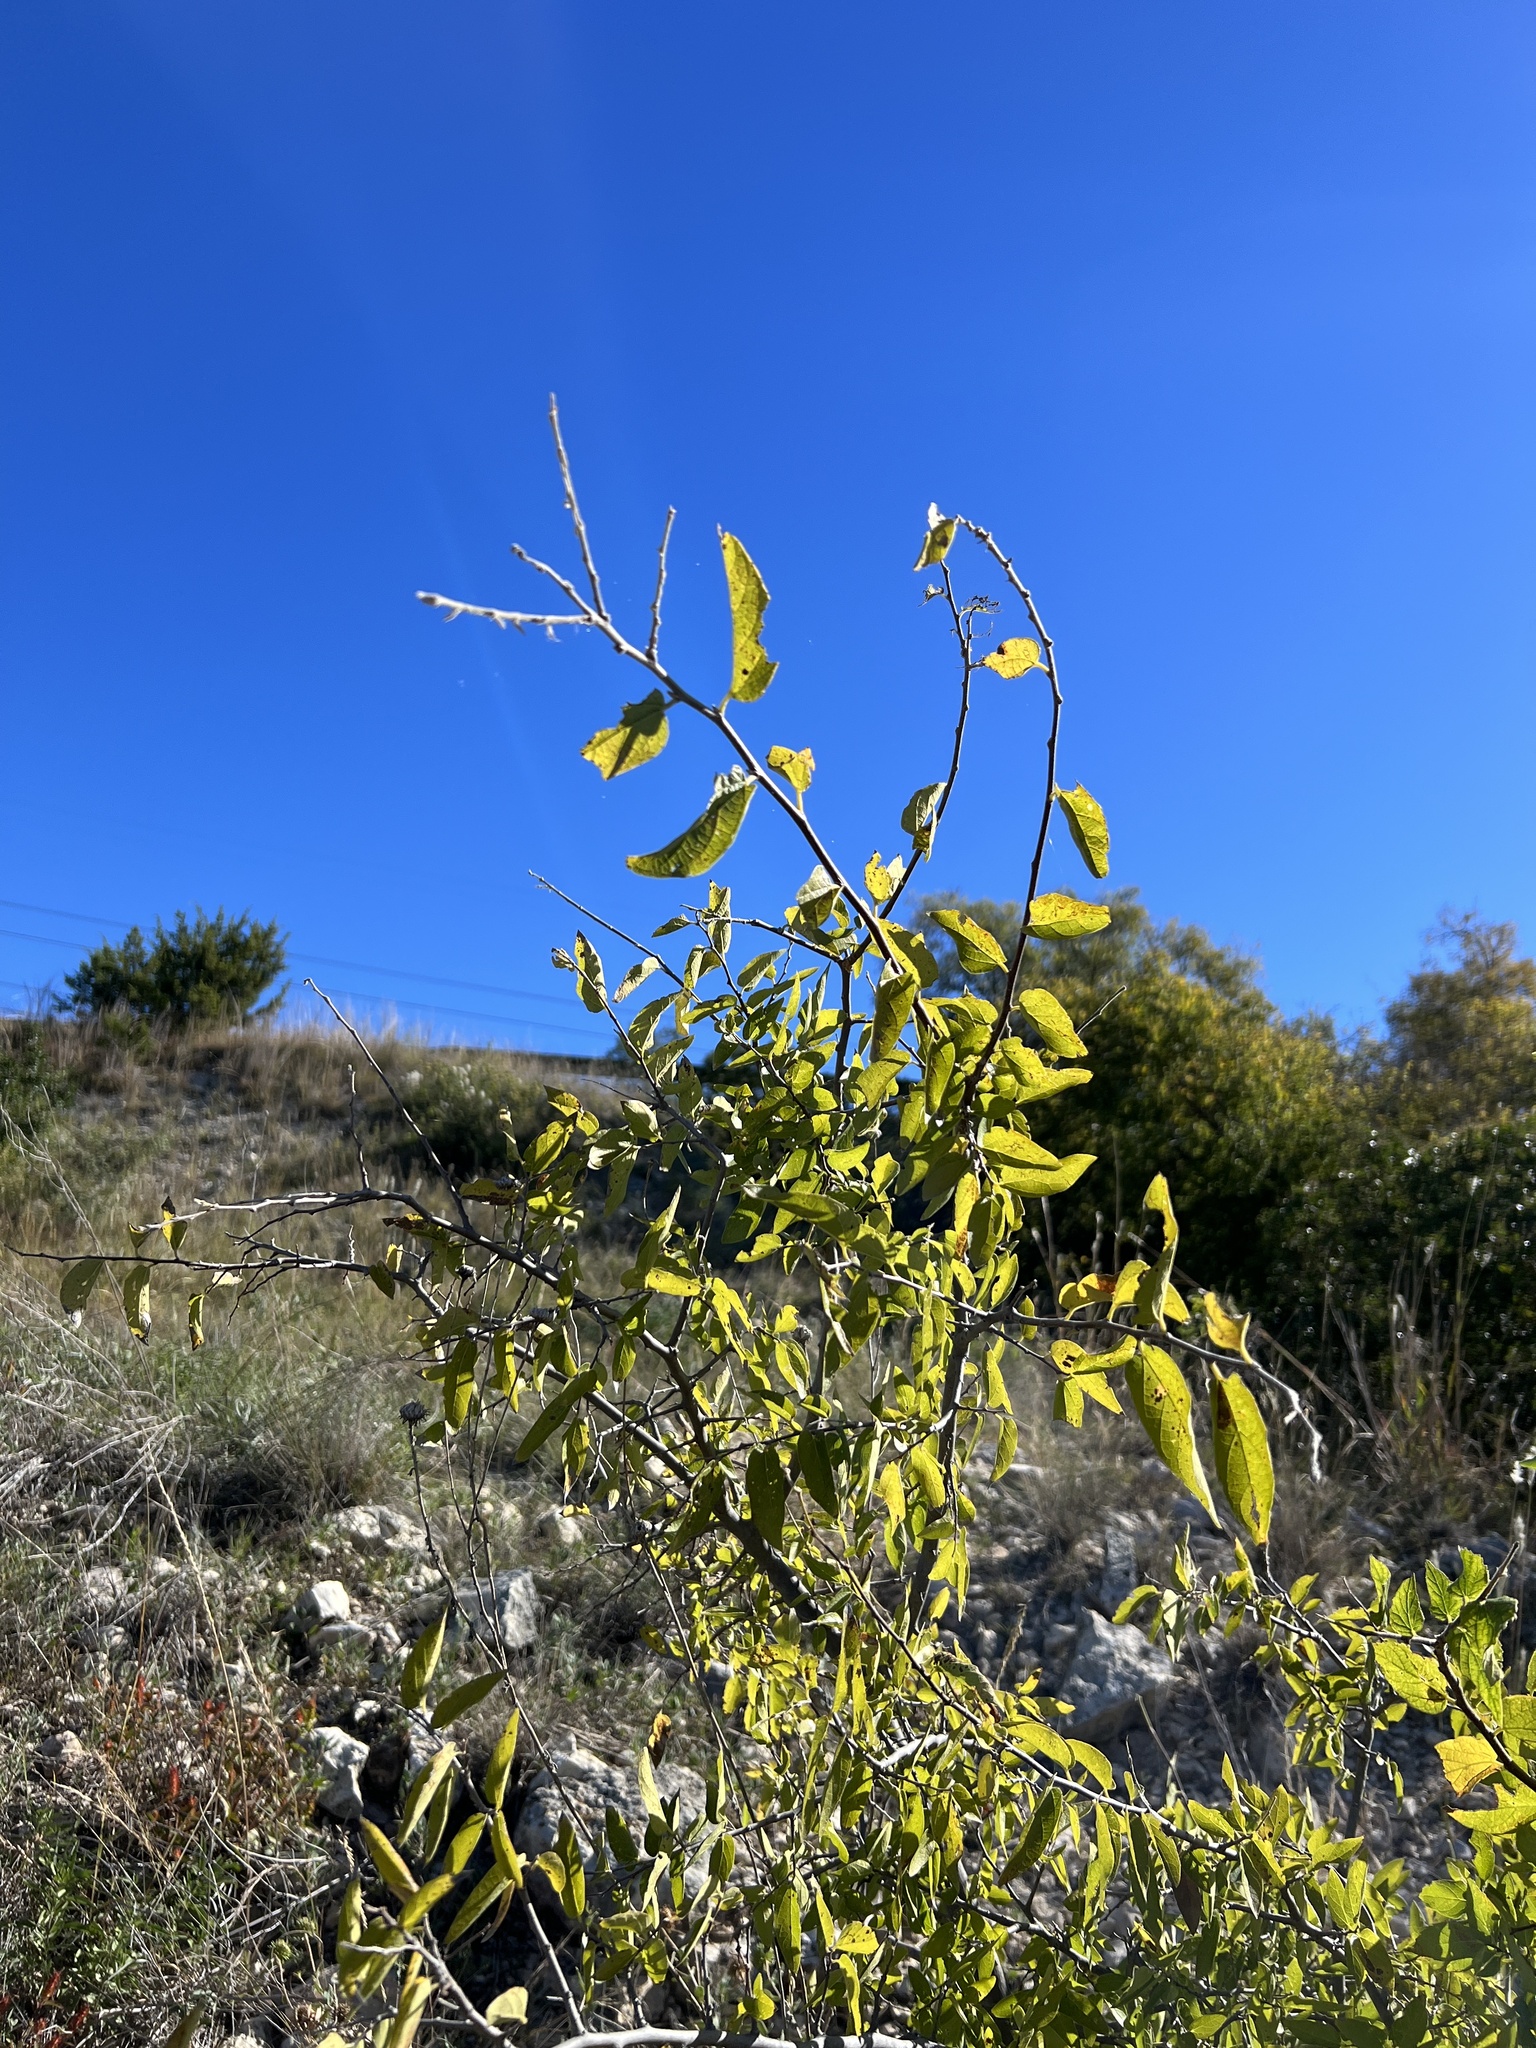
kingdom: Plantae
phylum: Tracheophyta
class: Magnoliopsida
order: Rosales
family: Cannabaceae
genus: Celtis
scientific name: Celtis reticulata
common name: Netleaf hackberry
